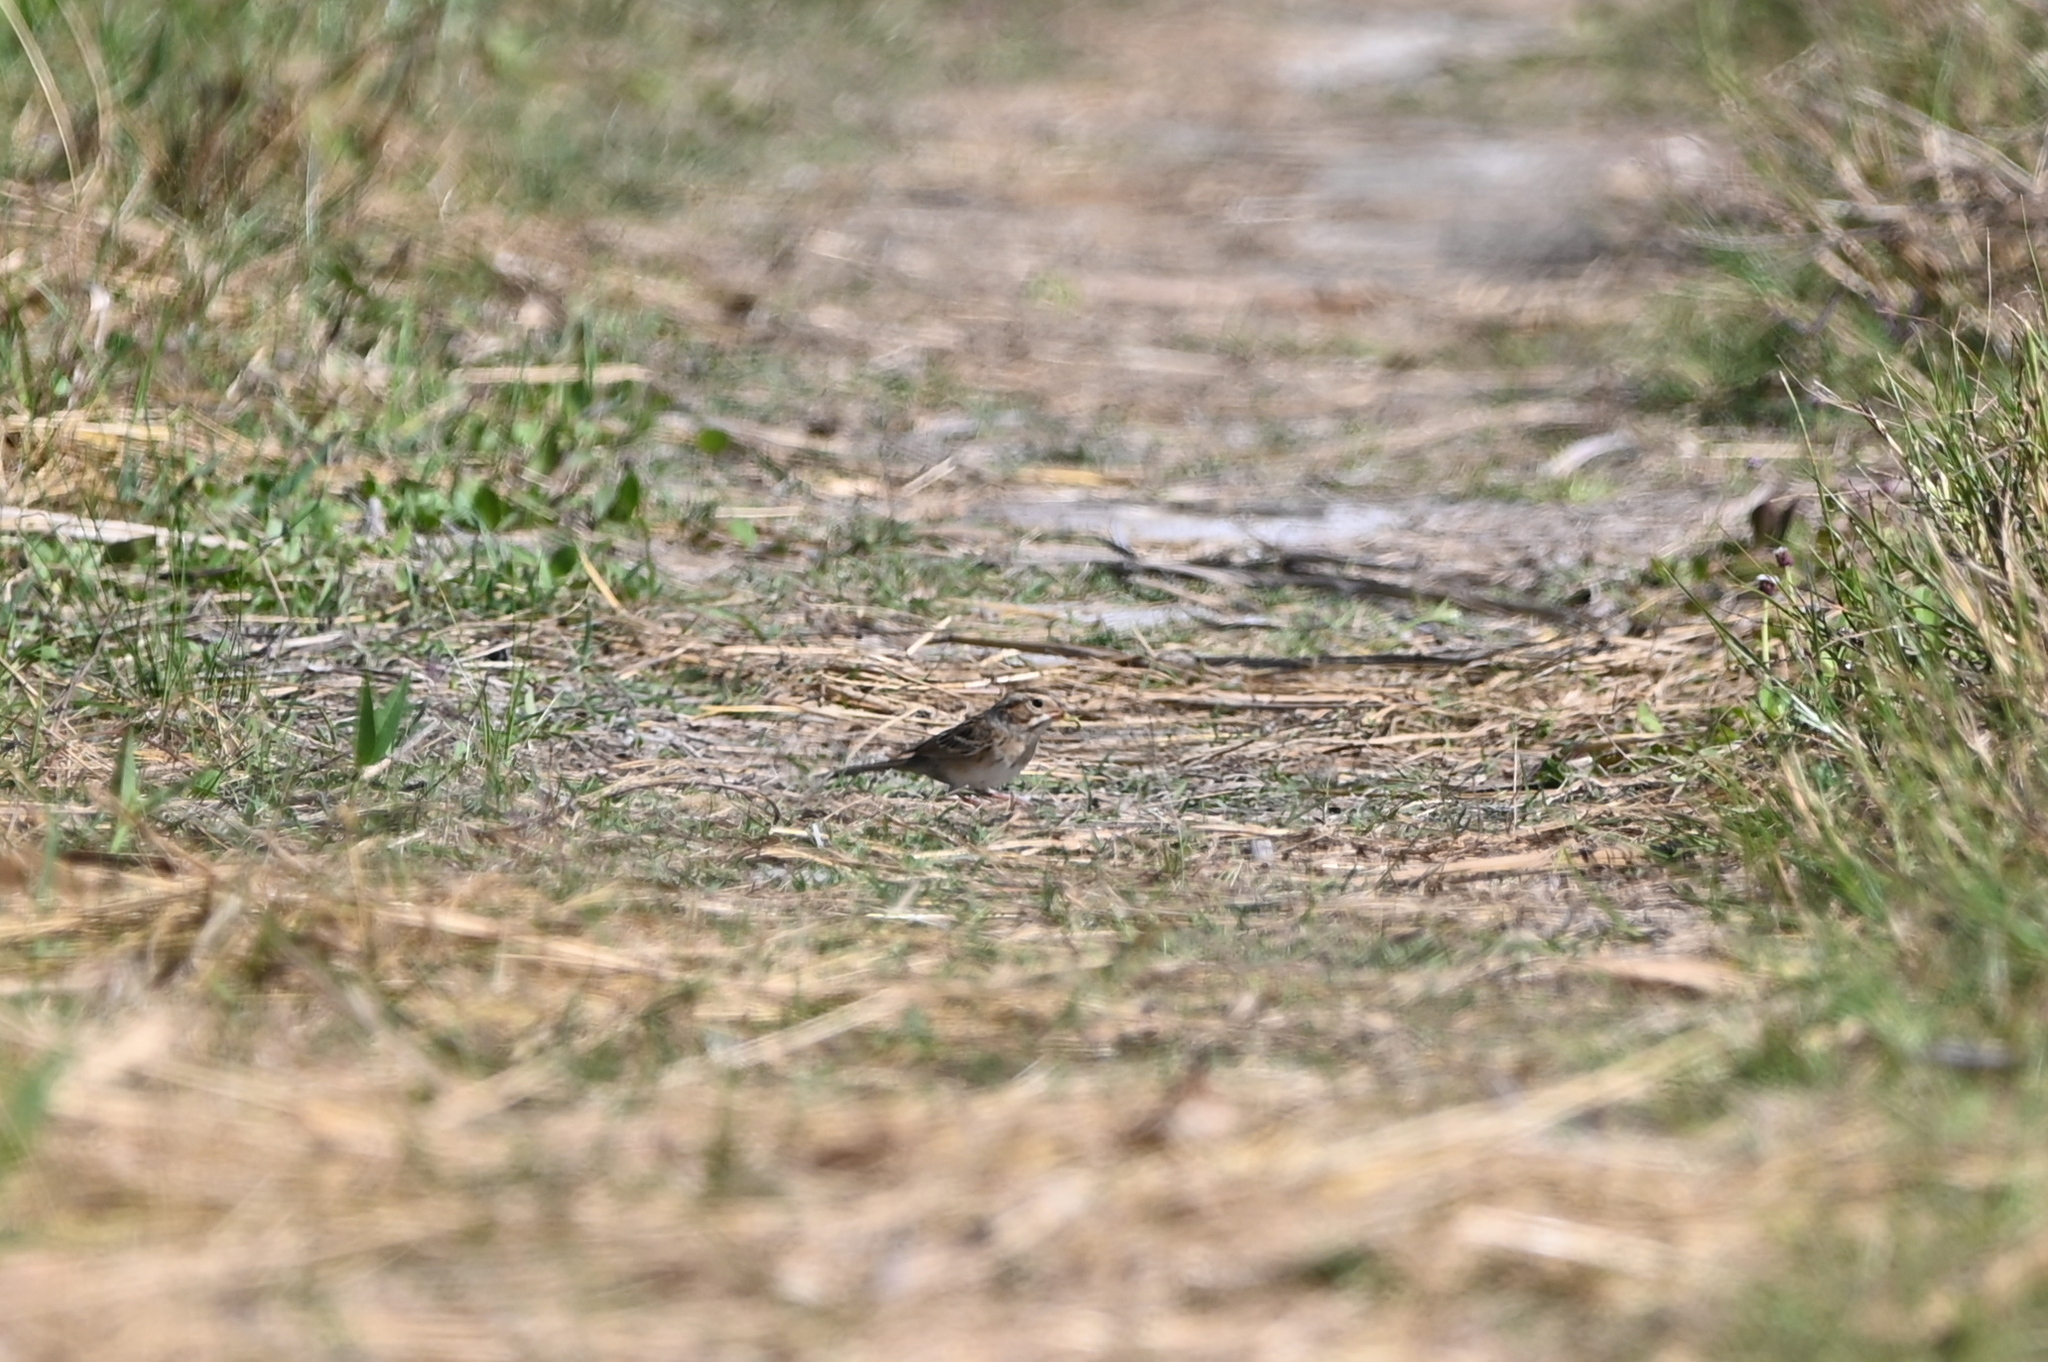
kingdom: Animalia
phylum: Chordata
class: Aves
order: Passeriformes
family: Passerellidae
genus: Spizella
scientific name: Spizella pallida
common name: Clay-colored sparrow
